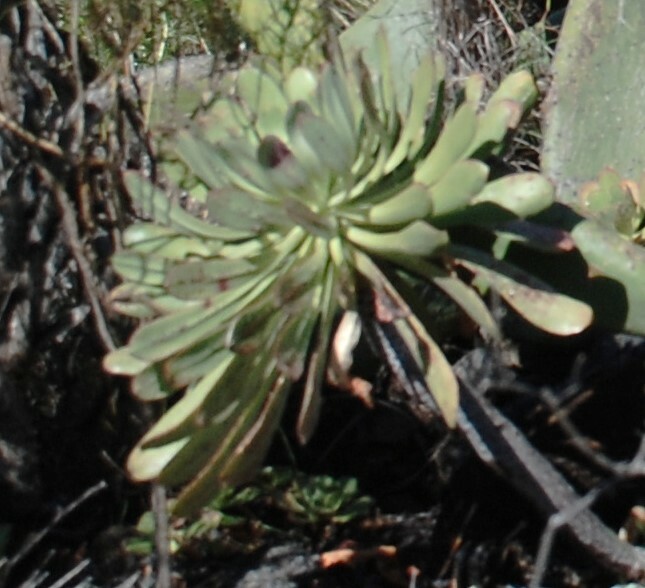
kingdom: Plantae
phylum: Tracheophyta
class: Magnoliopsida
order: Saxifragales
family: Crassulaceae
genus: Aeonium
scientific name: Aeonium urbicum
